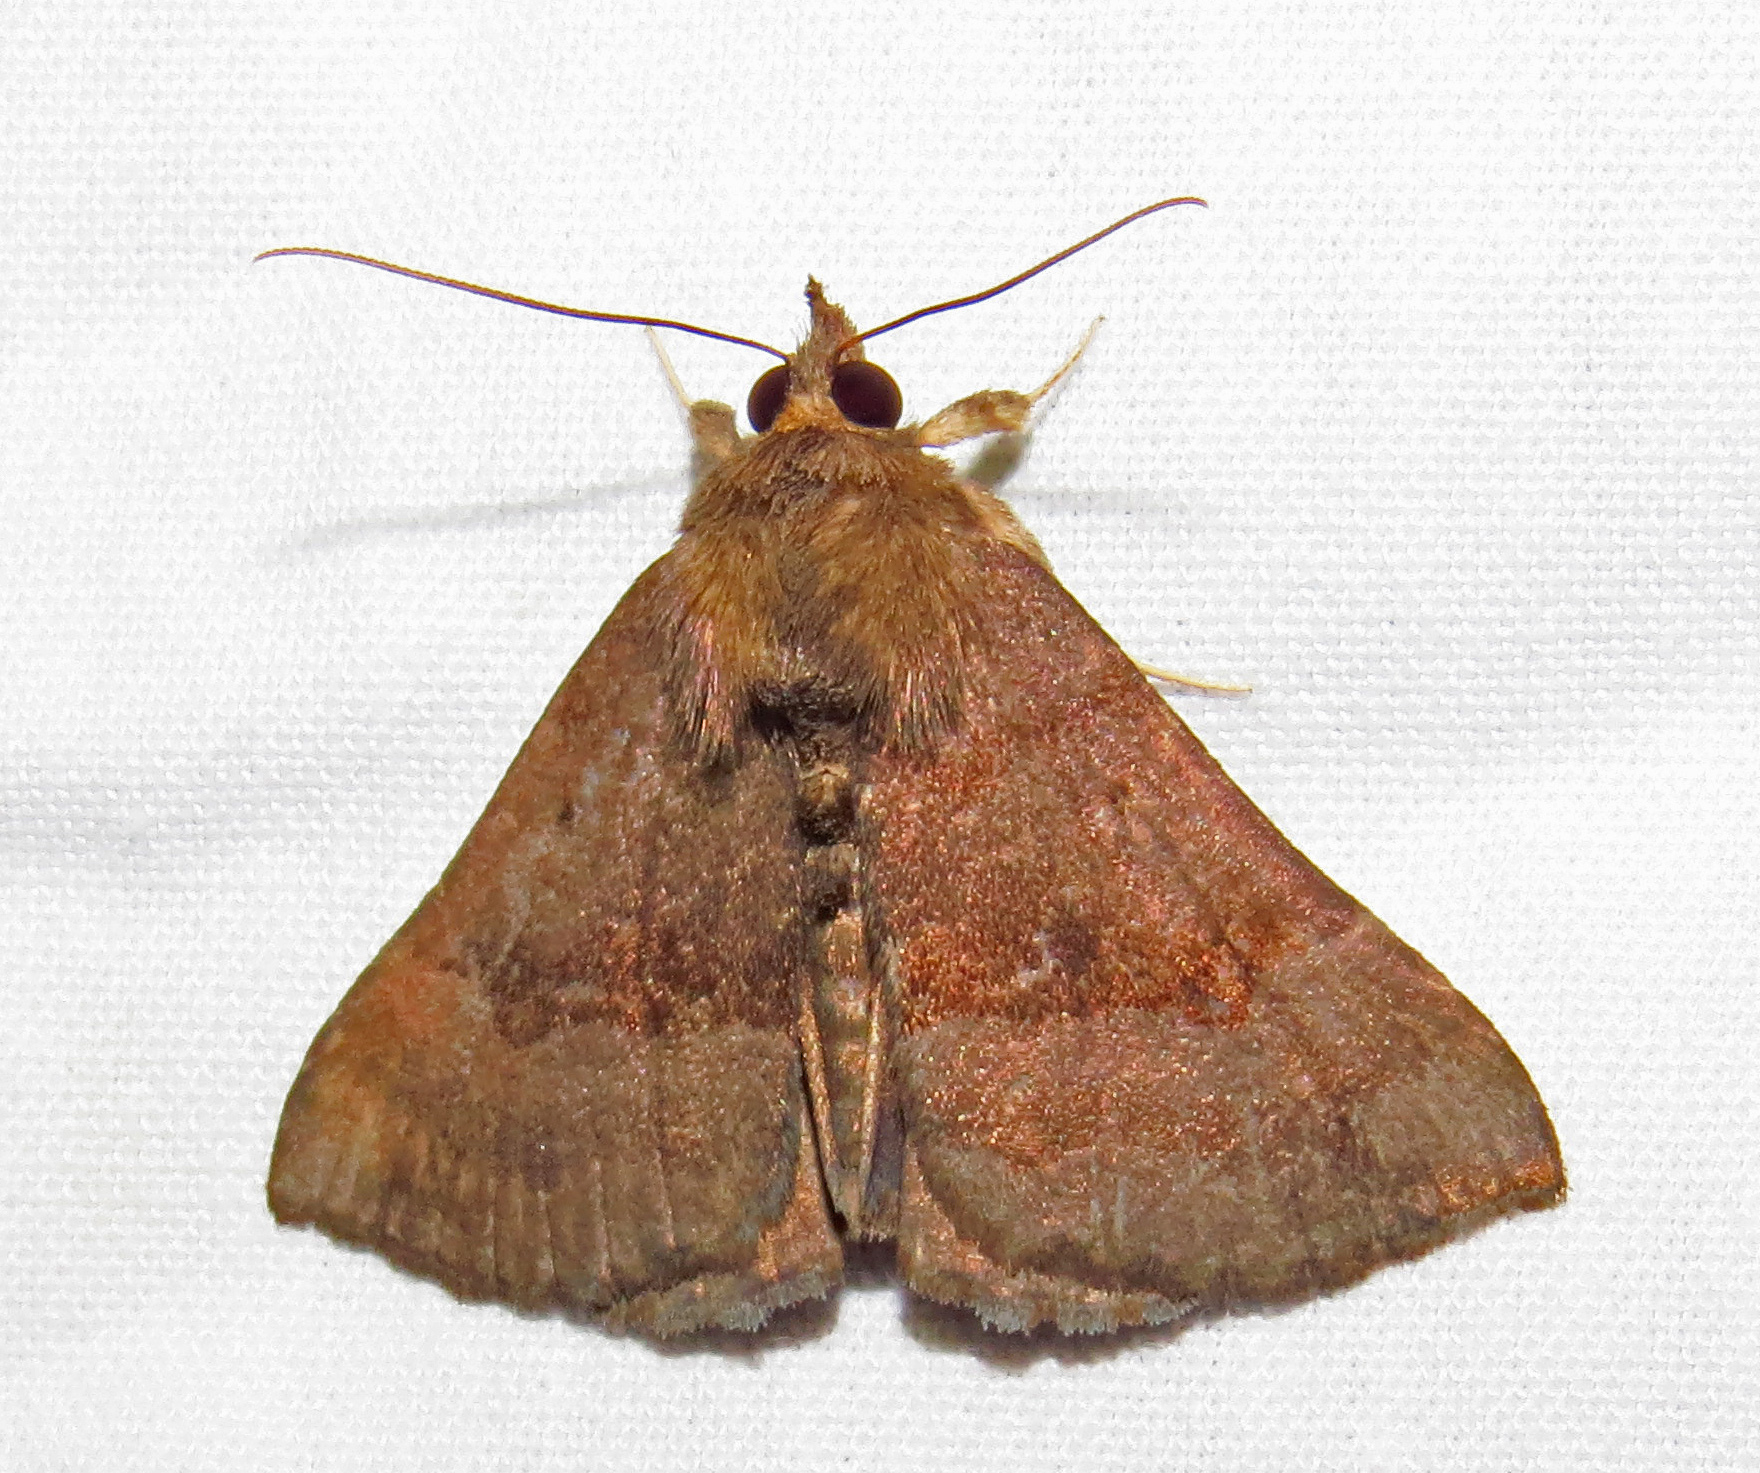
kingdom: Animalia
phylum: Arthropoda
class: Insecta
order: Lepidoptera
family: Erebidae
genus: Hypena
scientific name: Hypena madefactalis
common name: Gray-edged snout
